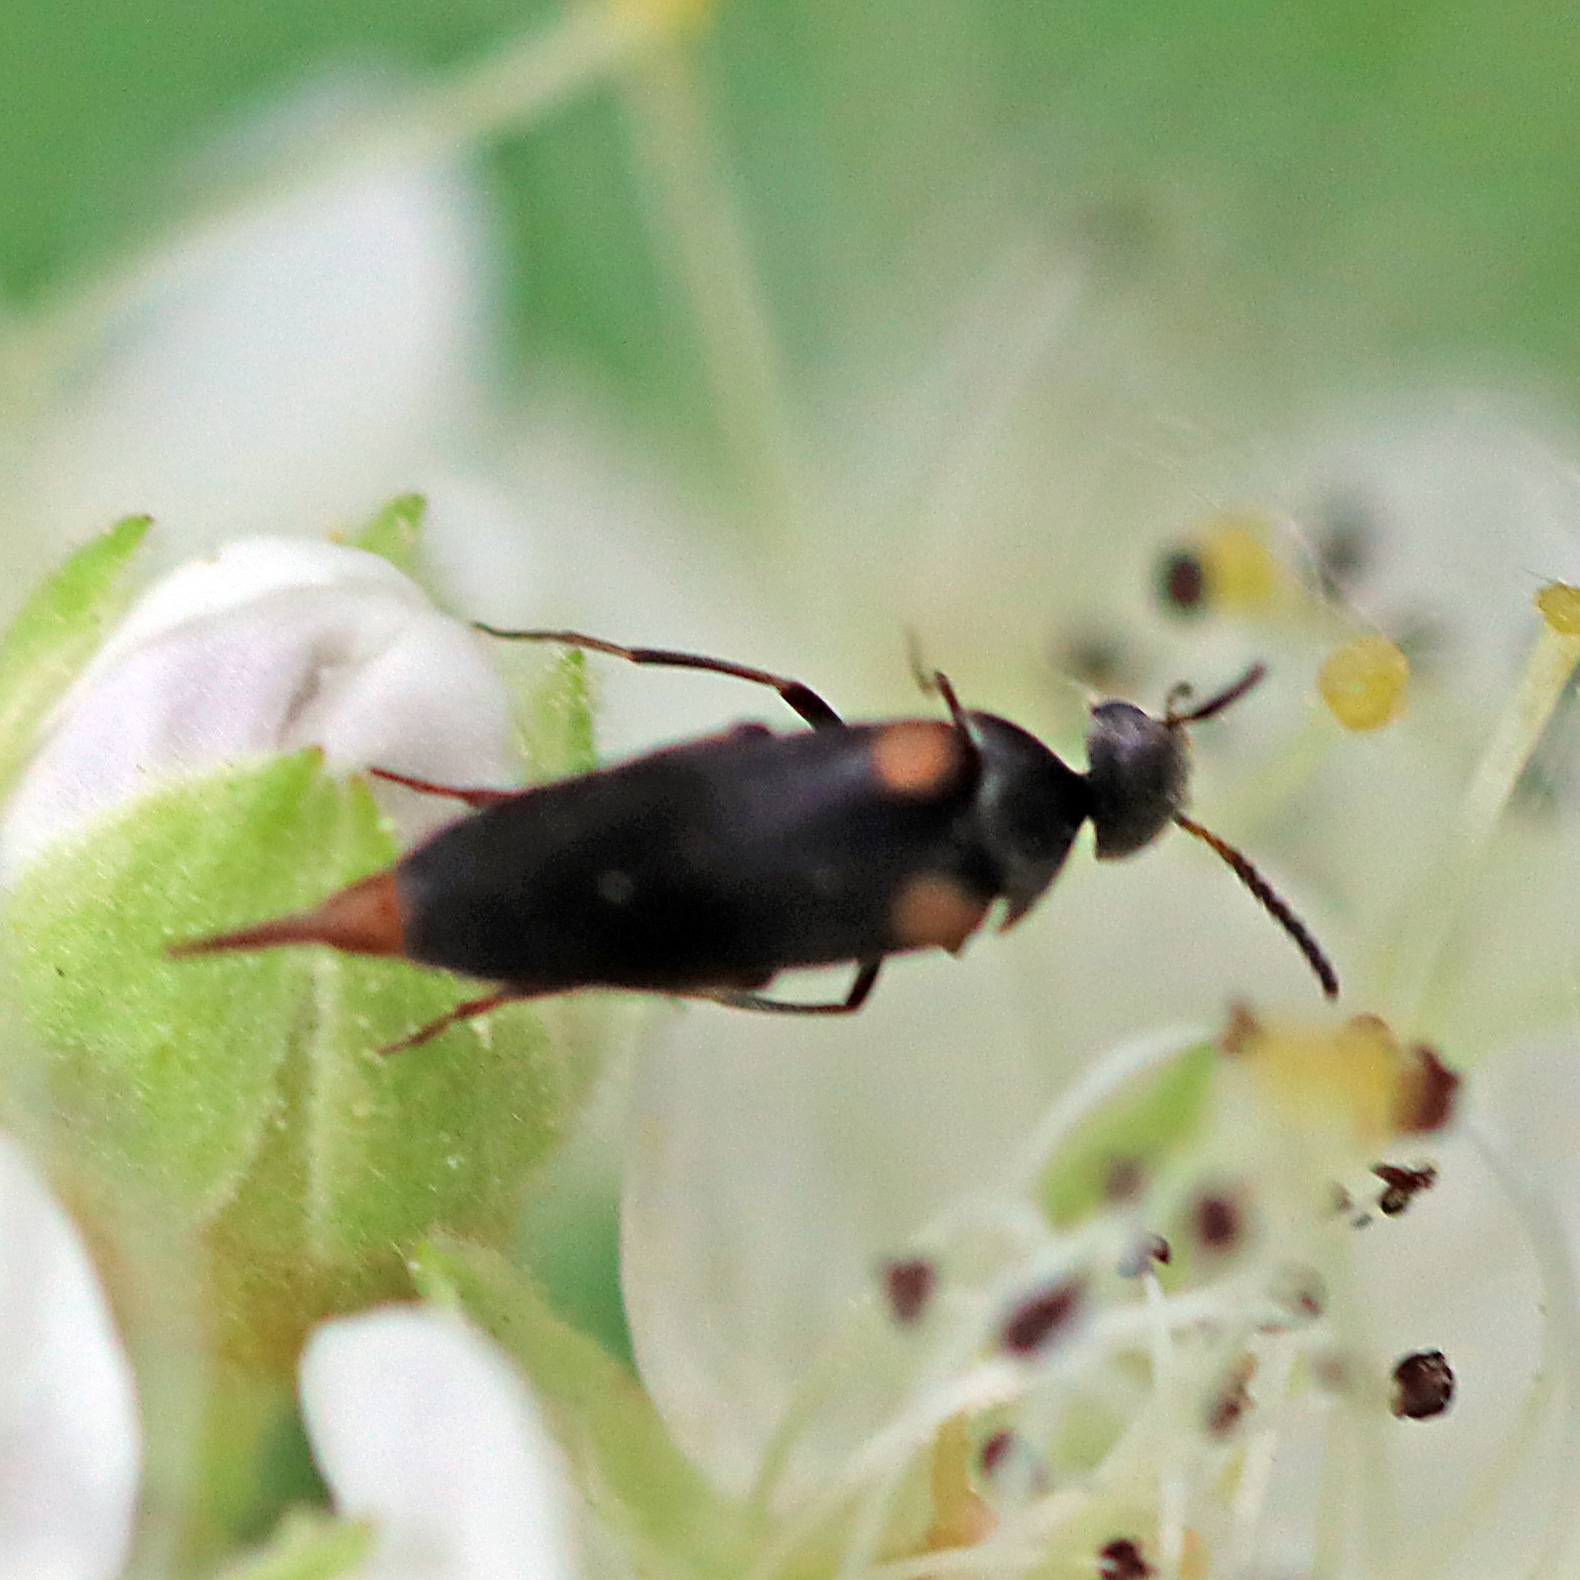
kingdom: Animalia
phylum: Arthropoda
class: Insecta
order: Coleoptera
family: Mordellidae
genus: Mordellochroa
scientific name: Mordellochroa scapularis
